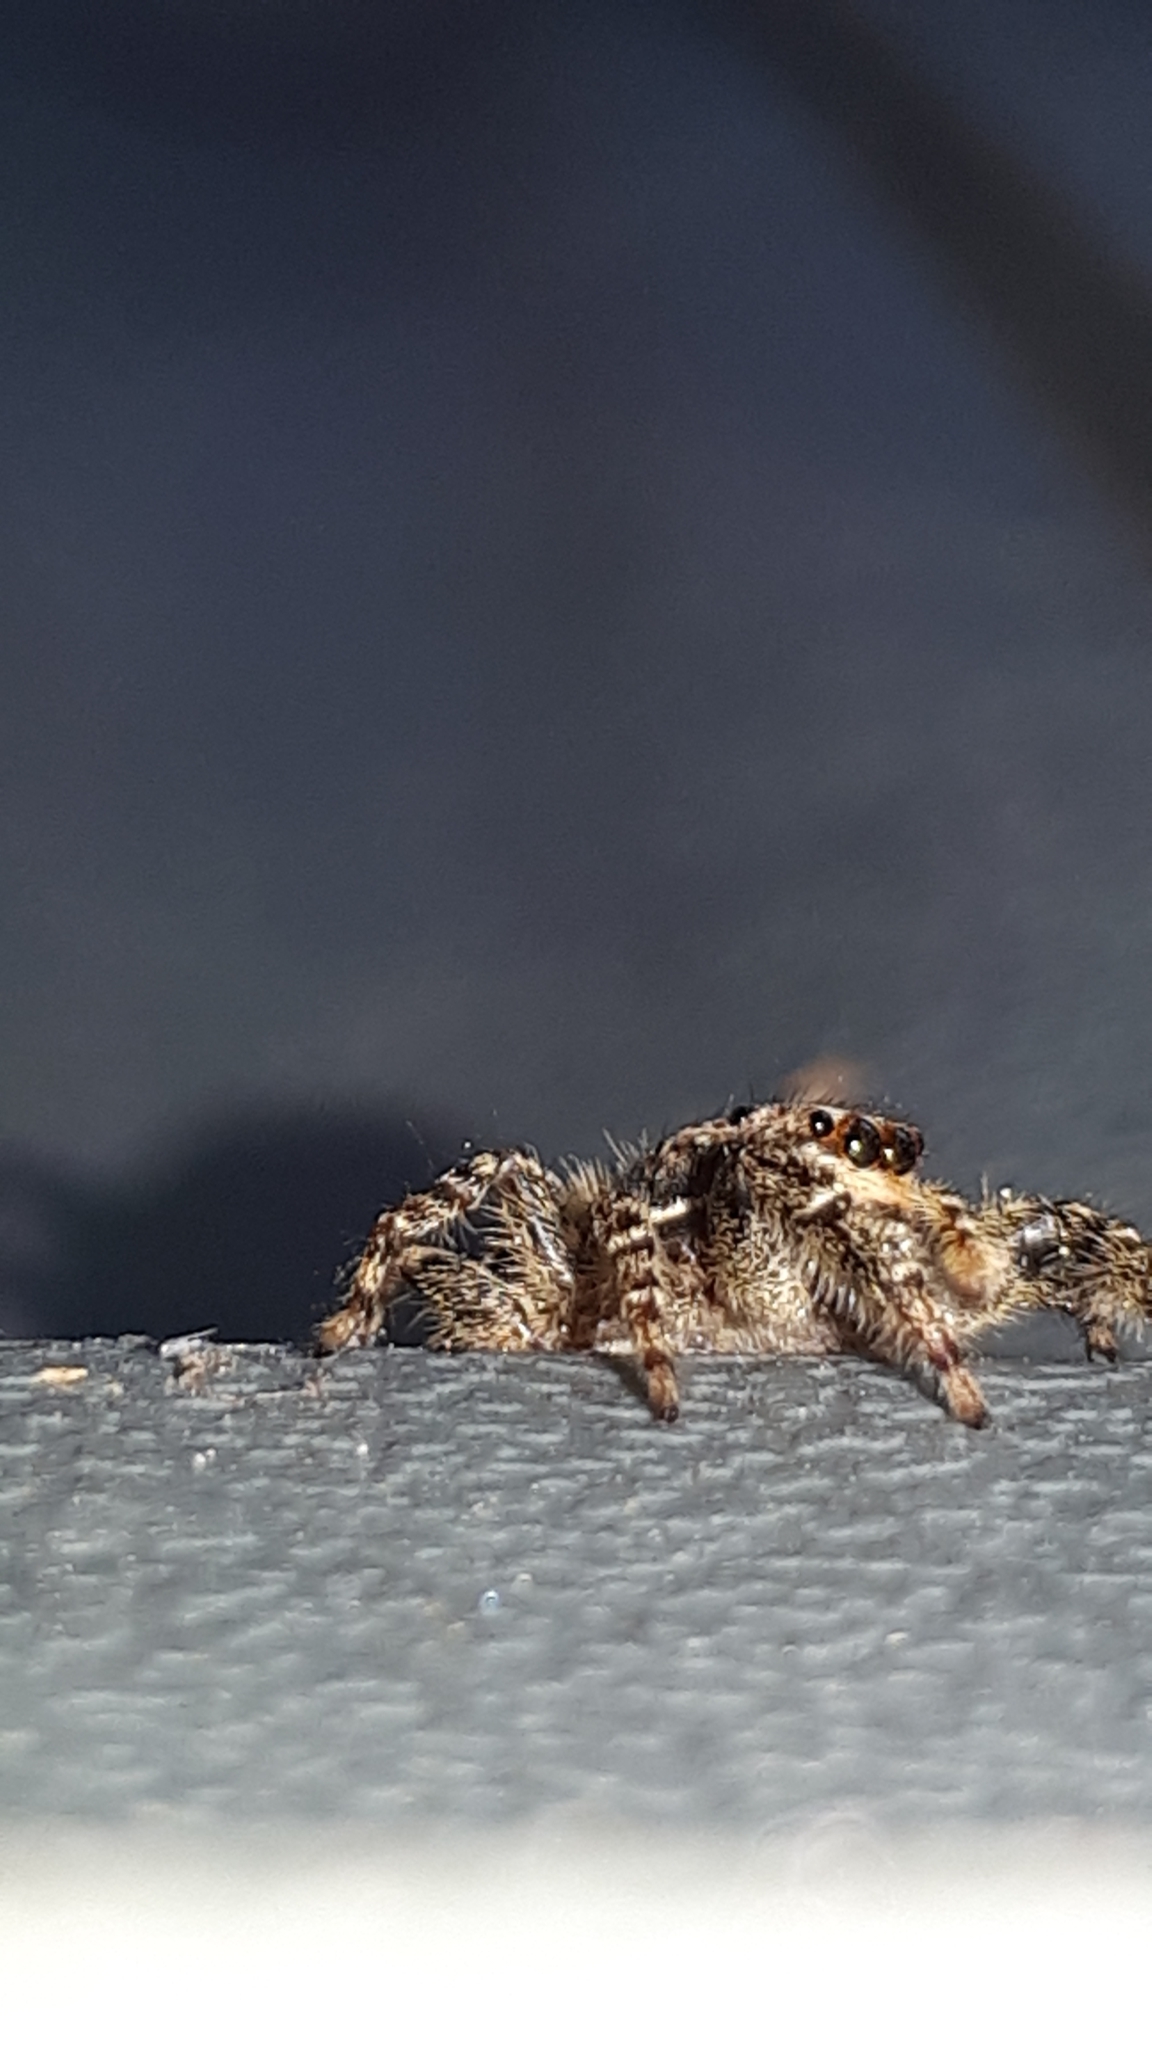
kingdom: Animalia
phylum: Arthropoda
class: Arachnida
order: Araneae
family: Salticidae
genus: Marpissa
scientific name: Marpissa muscosa
